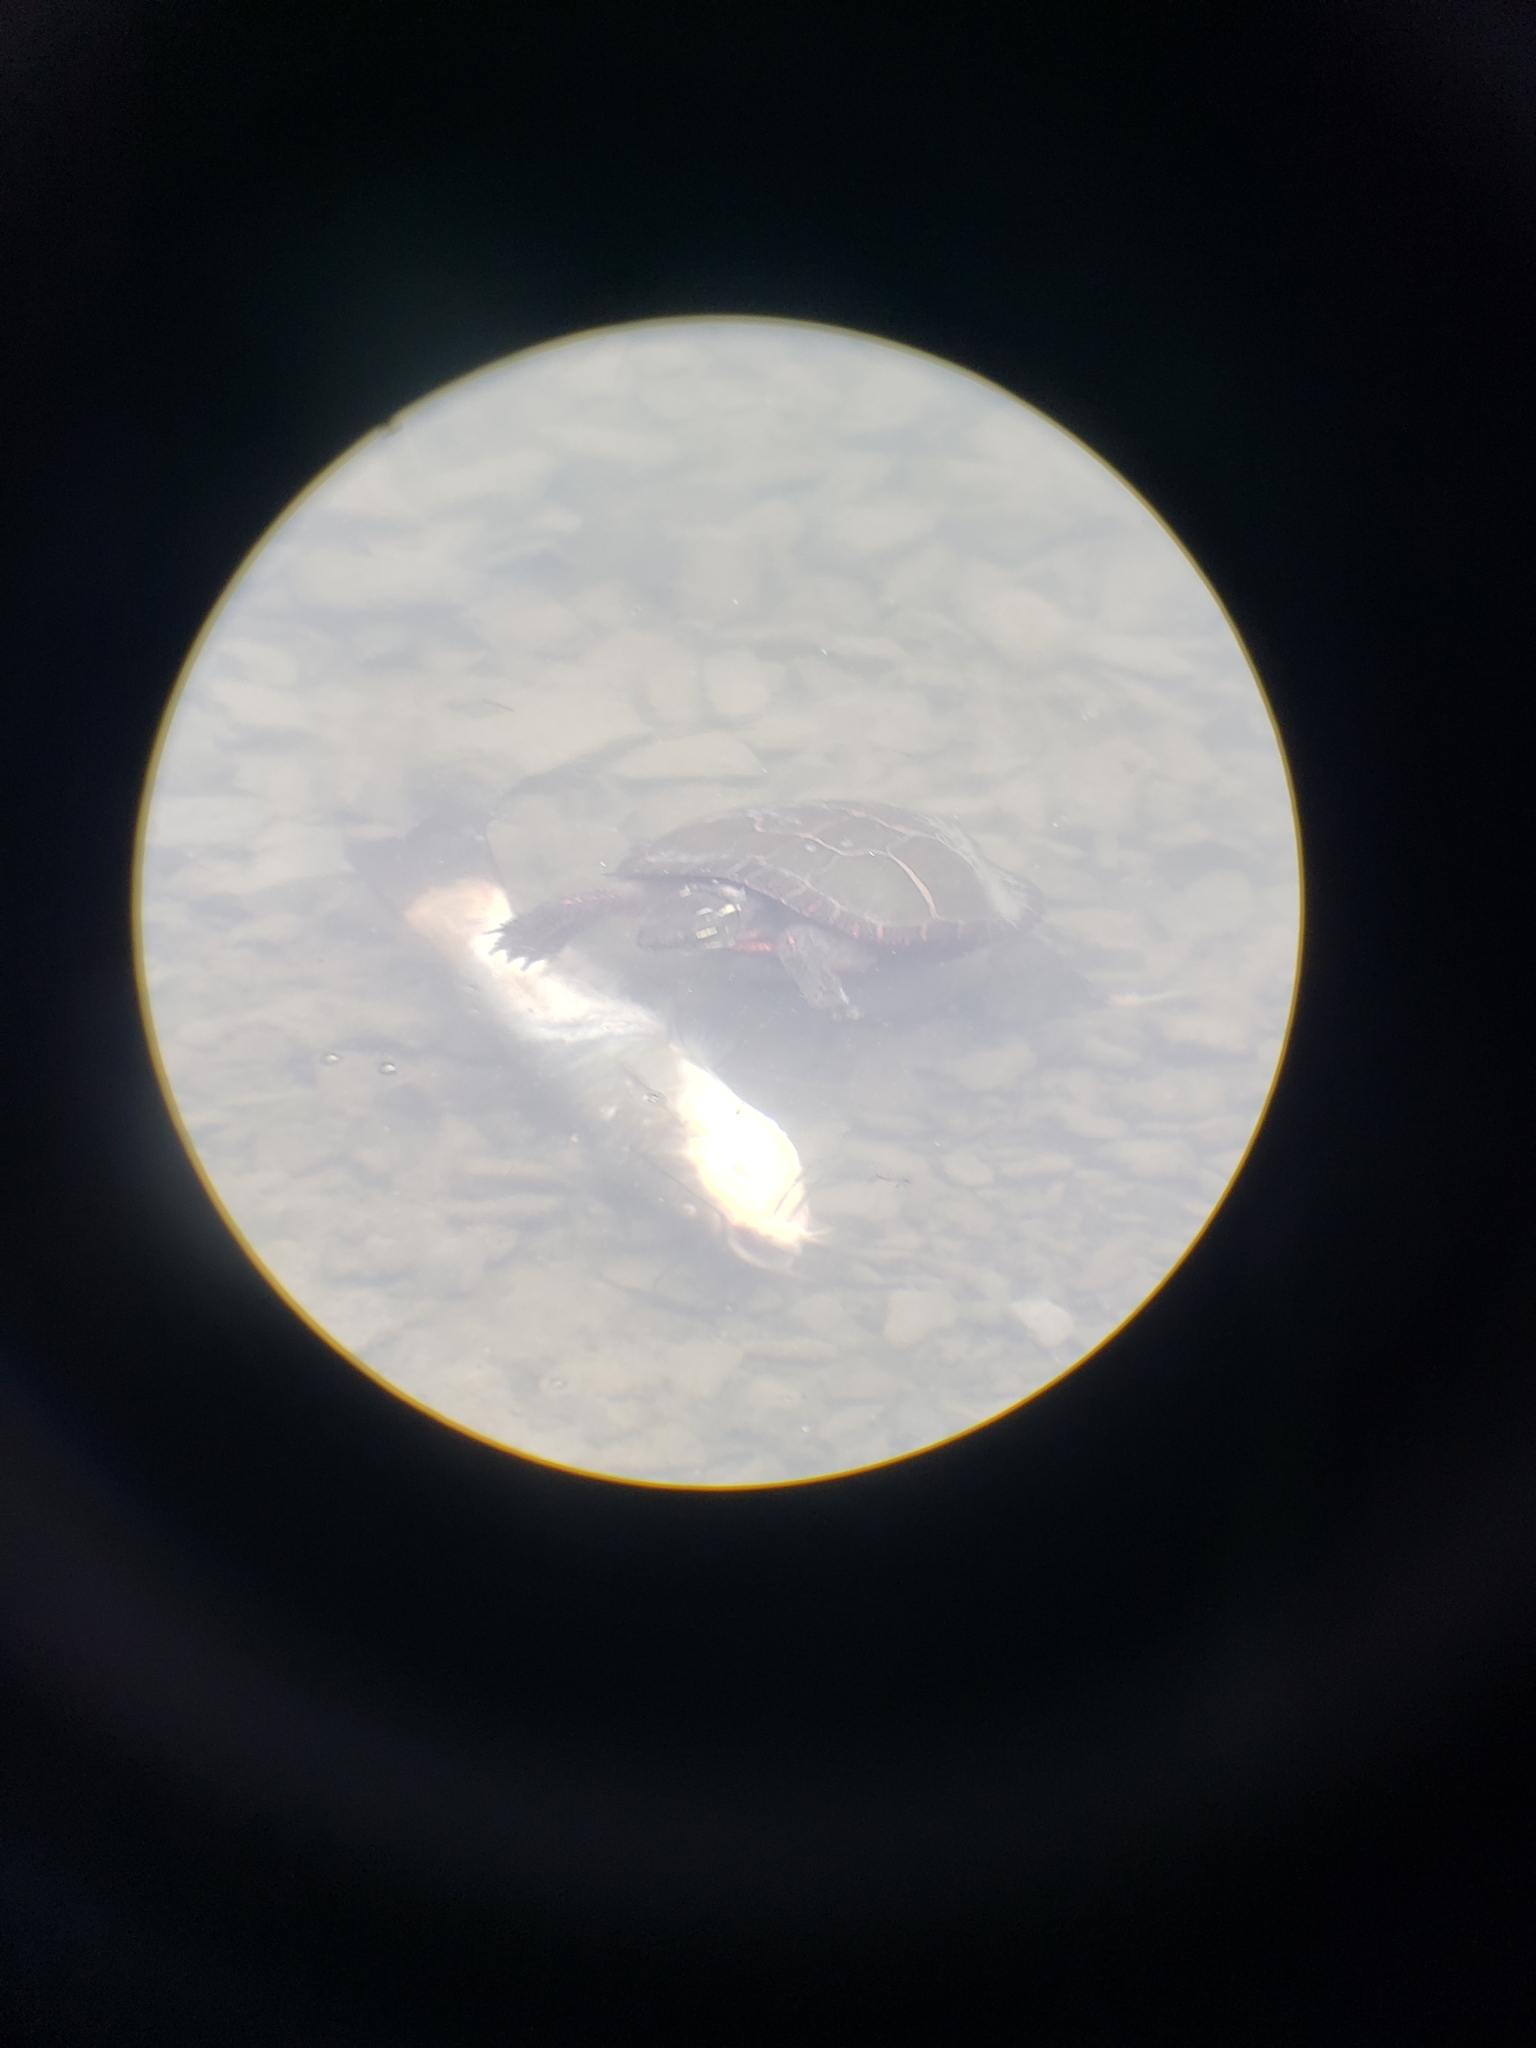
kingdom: Animalia
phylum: Chordata
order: Siluriformes
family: Ictaluridae
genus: Ameiurus
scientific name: Ameiurus nebulosus
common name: Brown bullhead
